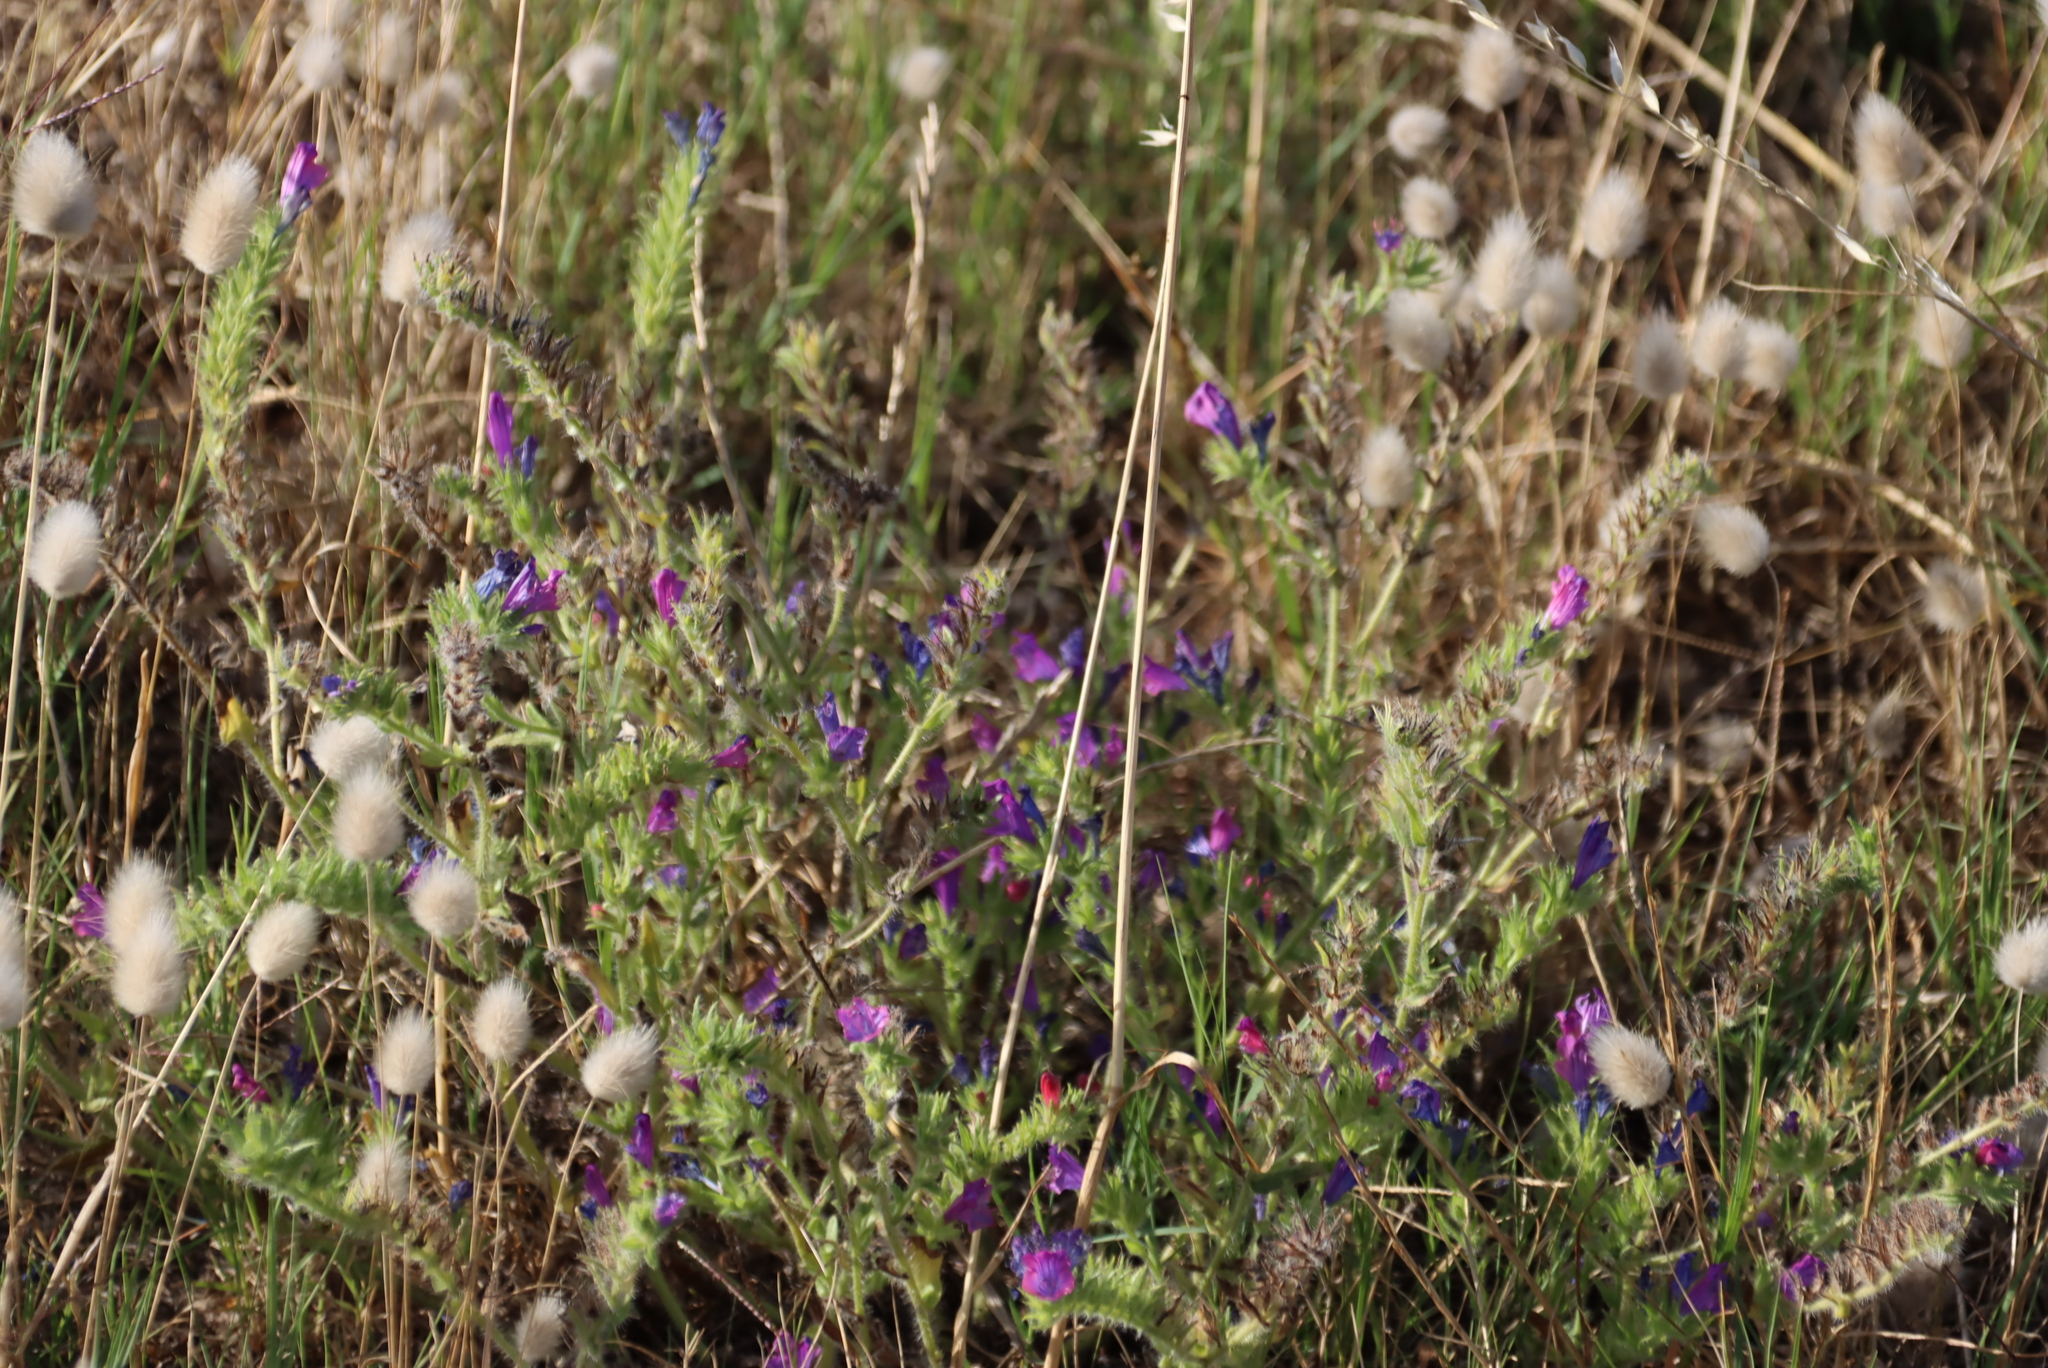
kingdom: Plantae
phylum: Tracheophyta
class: Liliopsida
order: Poales
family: Poaceae
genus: Lagurus
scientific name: Lagurus ovatus
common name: Hare's-tail
